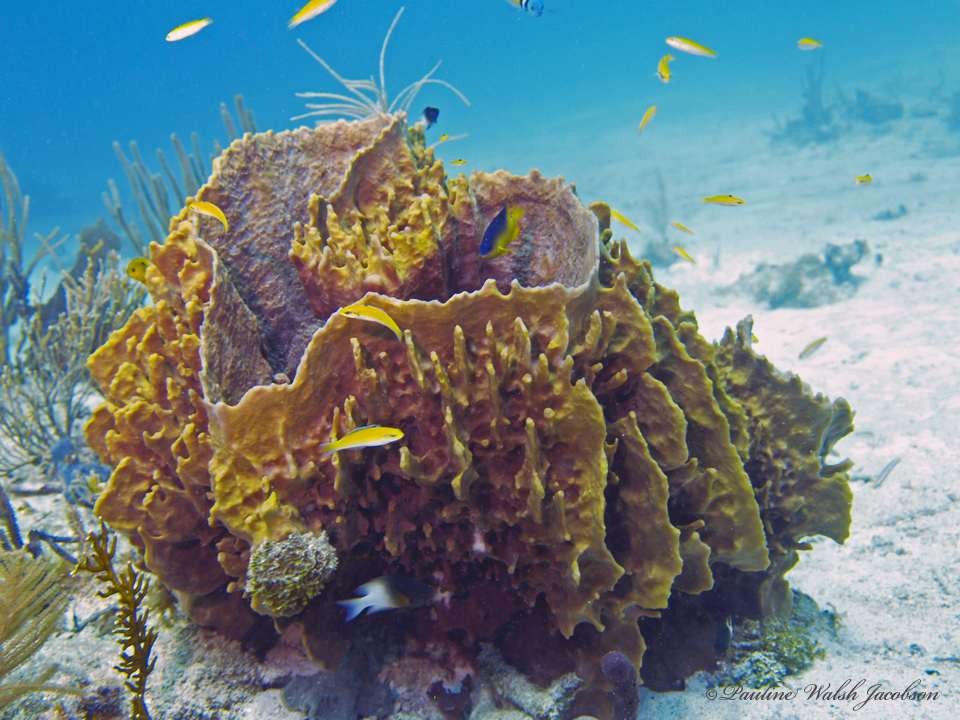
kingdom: Animalia
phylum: Porifera
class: Demospongiae
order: Haplosclerida
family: Petrosiidae
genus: Xestospongia
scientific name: Xestospongia muta
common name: Giant barrel sponge
